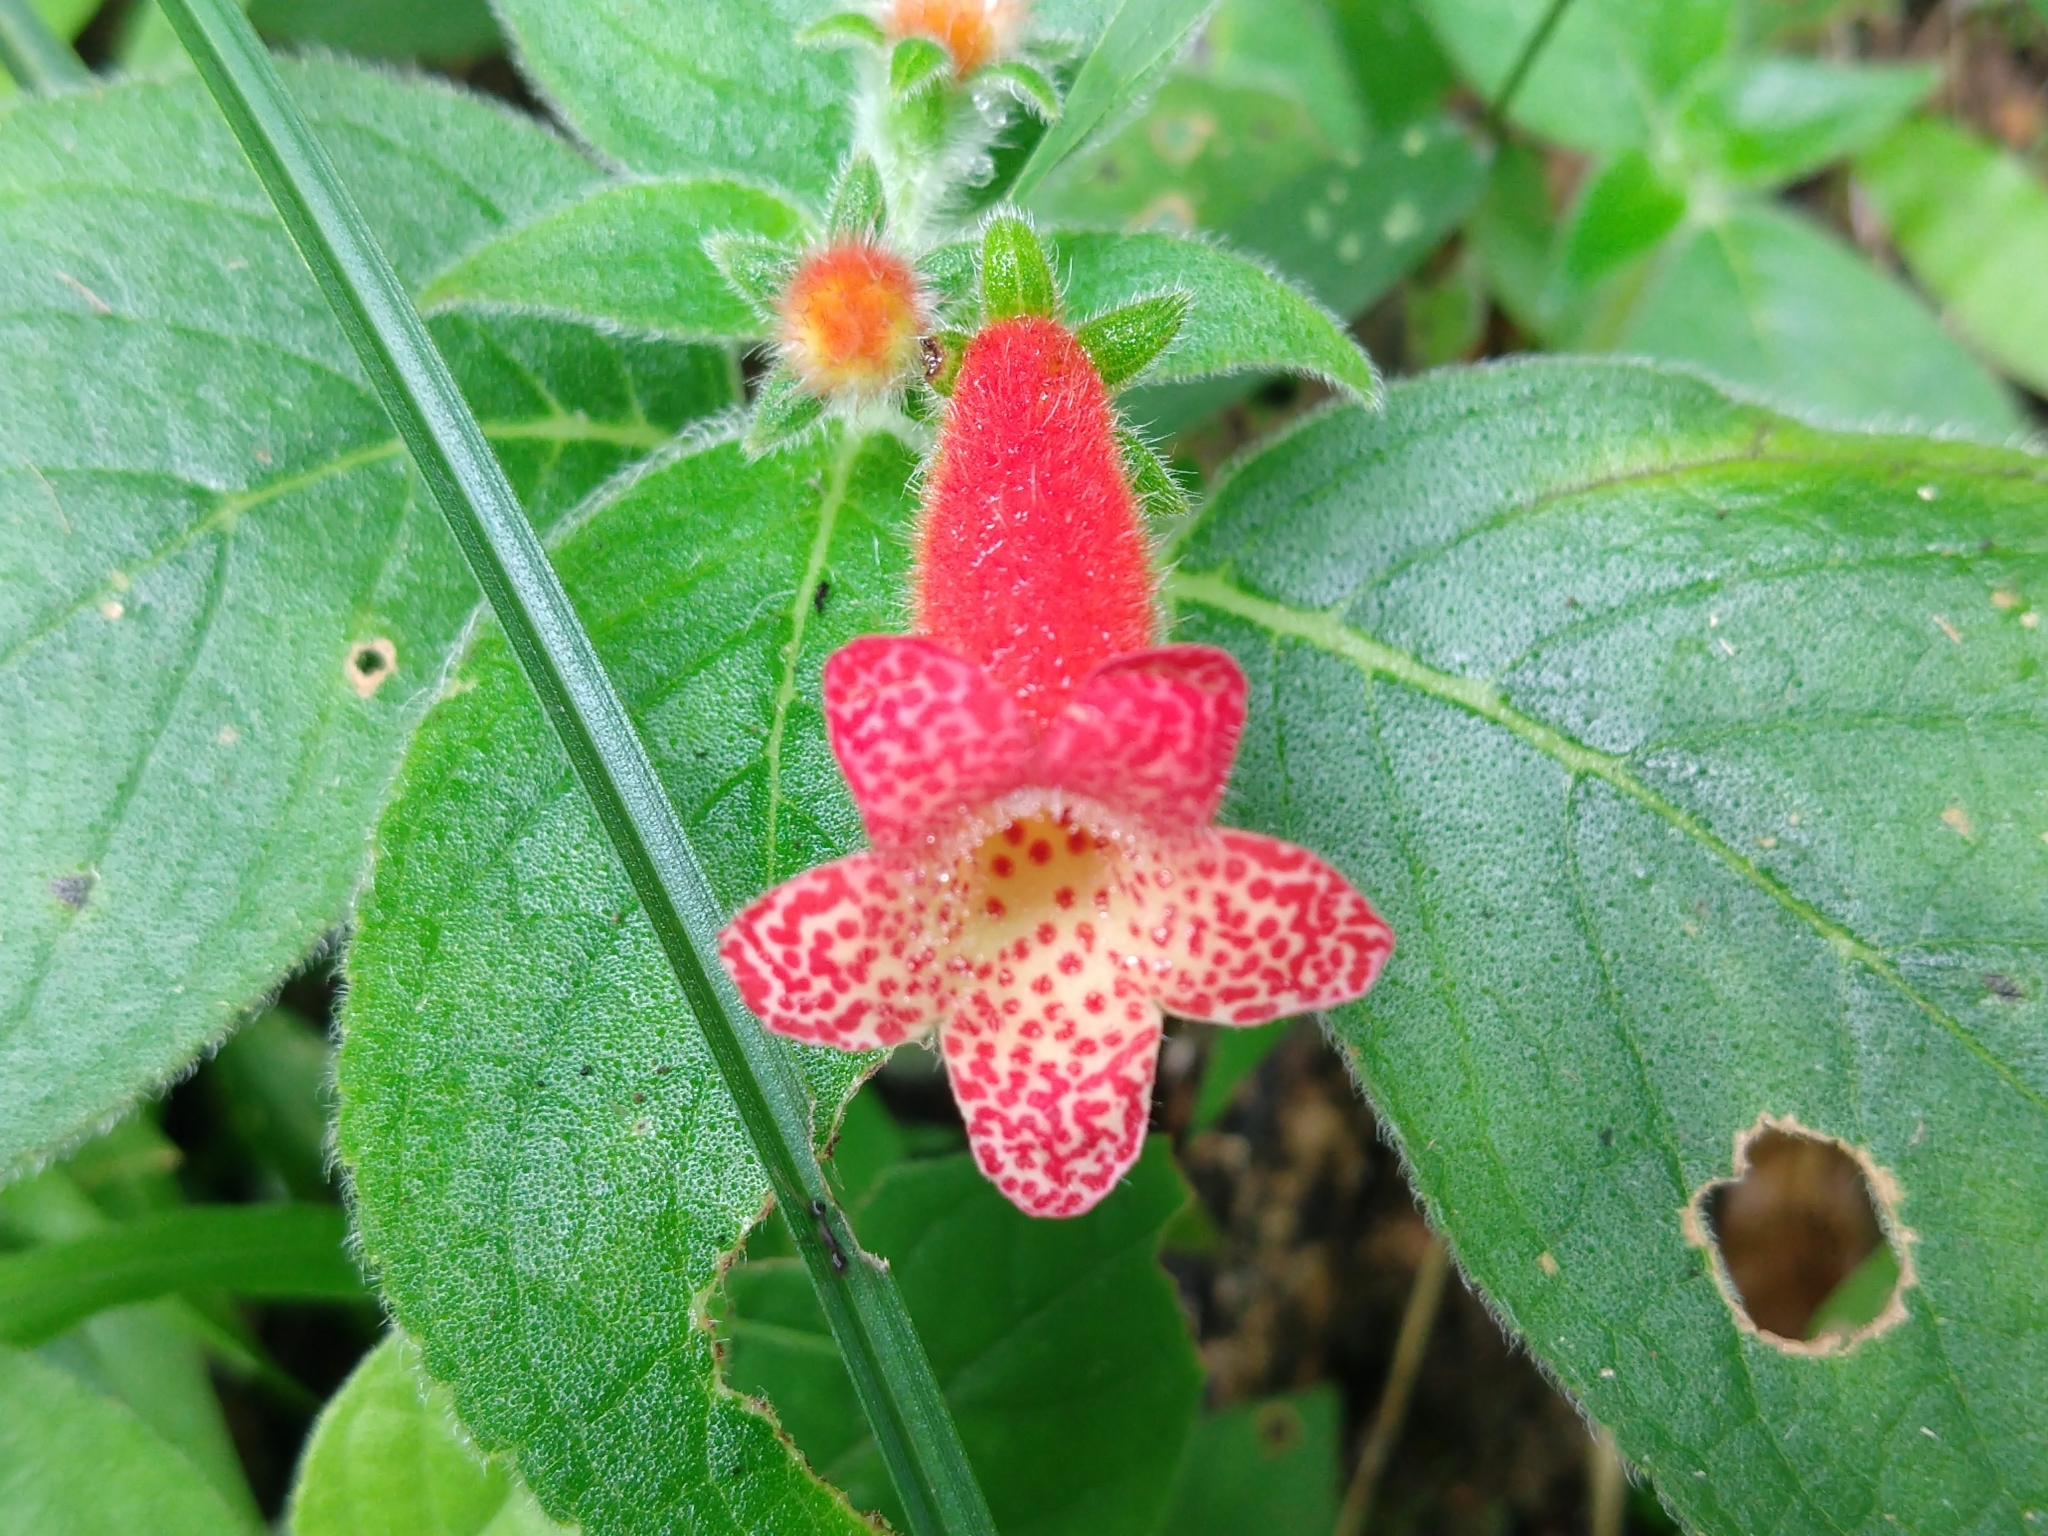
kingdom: Plantae
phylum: Tracheophyta
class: Magnoliopsida
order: Lamiales
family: Gesneriaceae
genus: Kohleria
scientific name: Kohleria rugata
